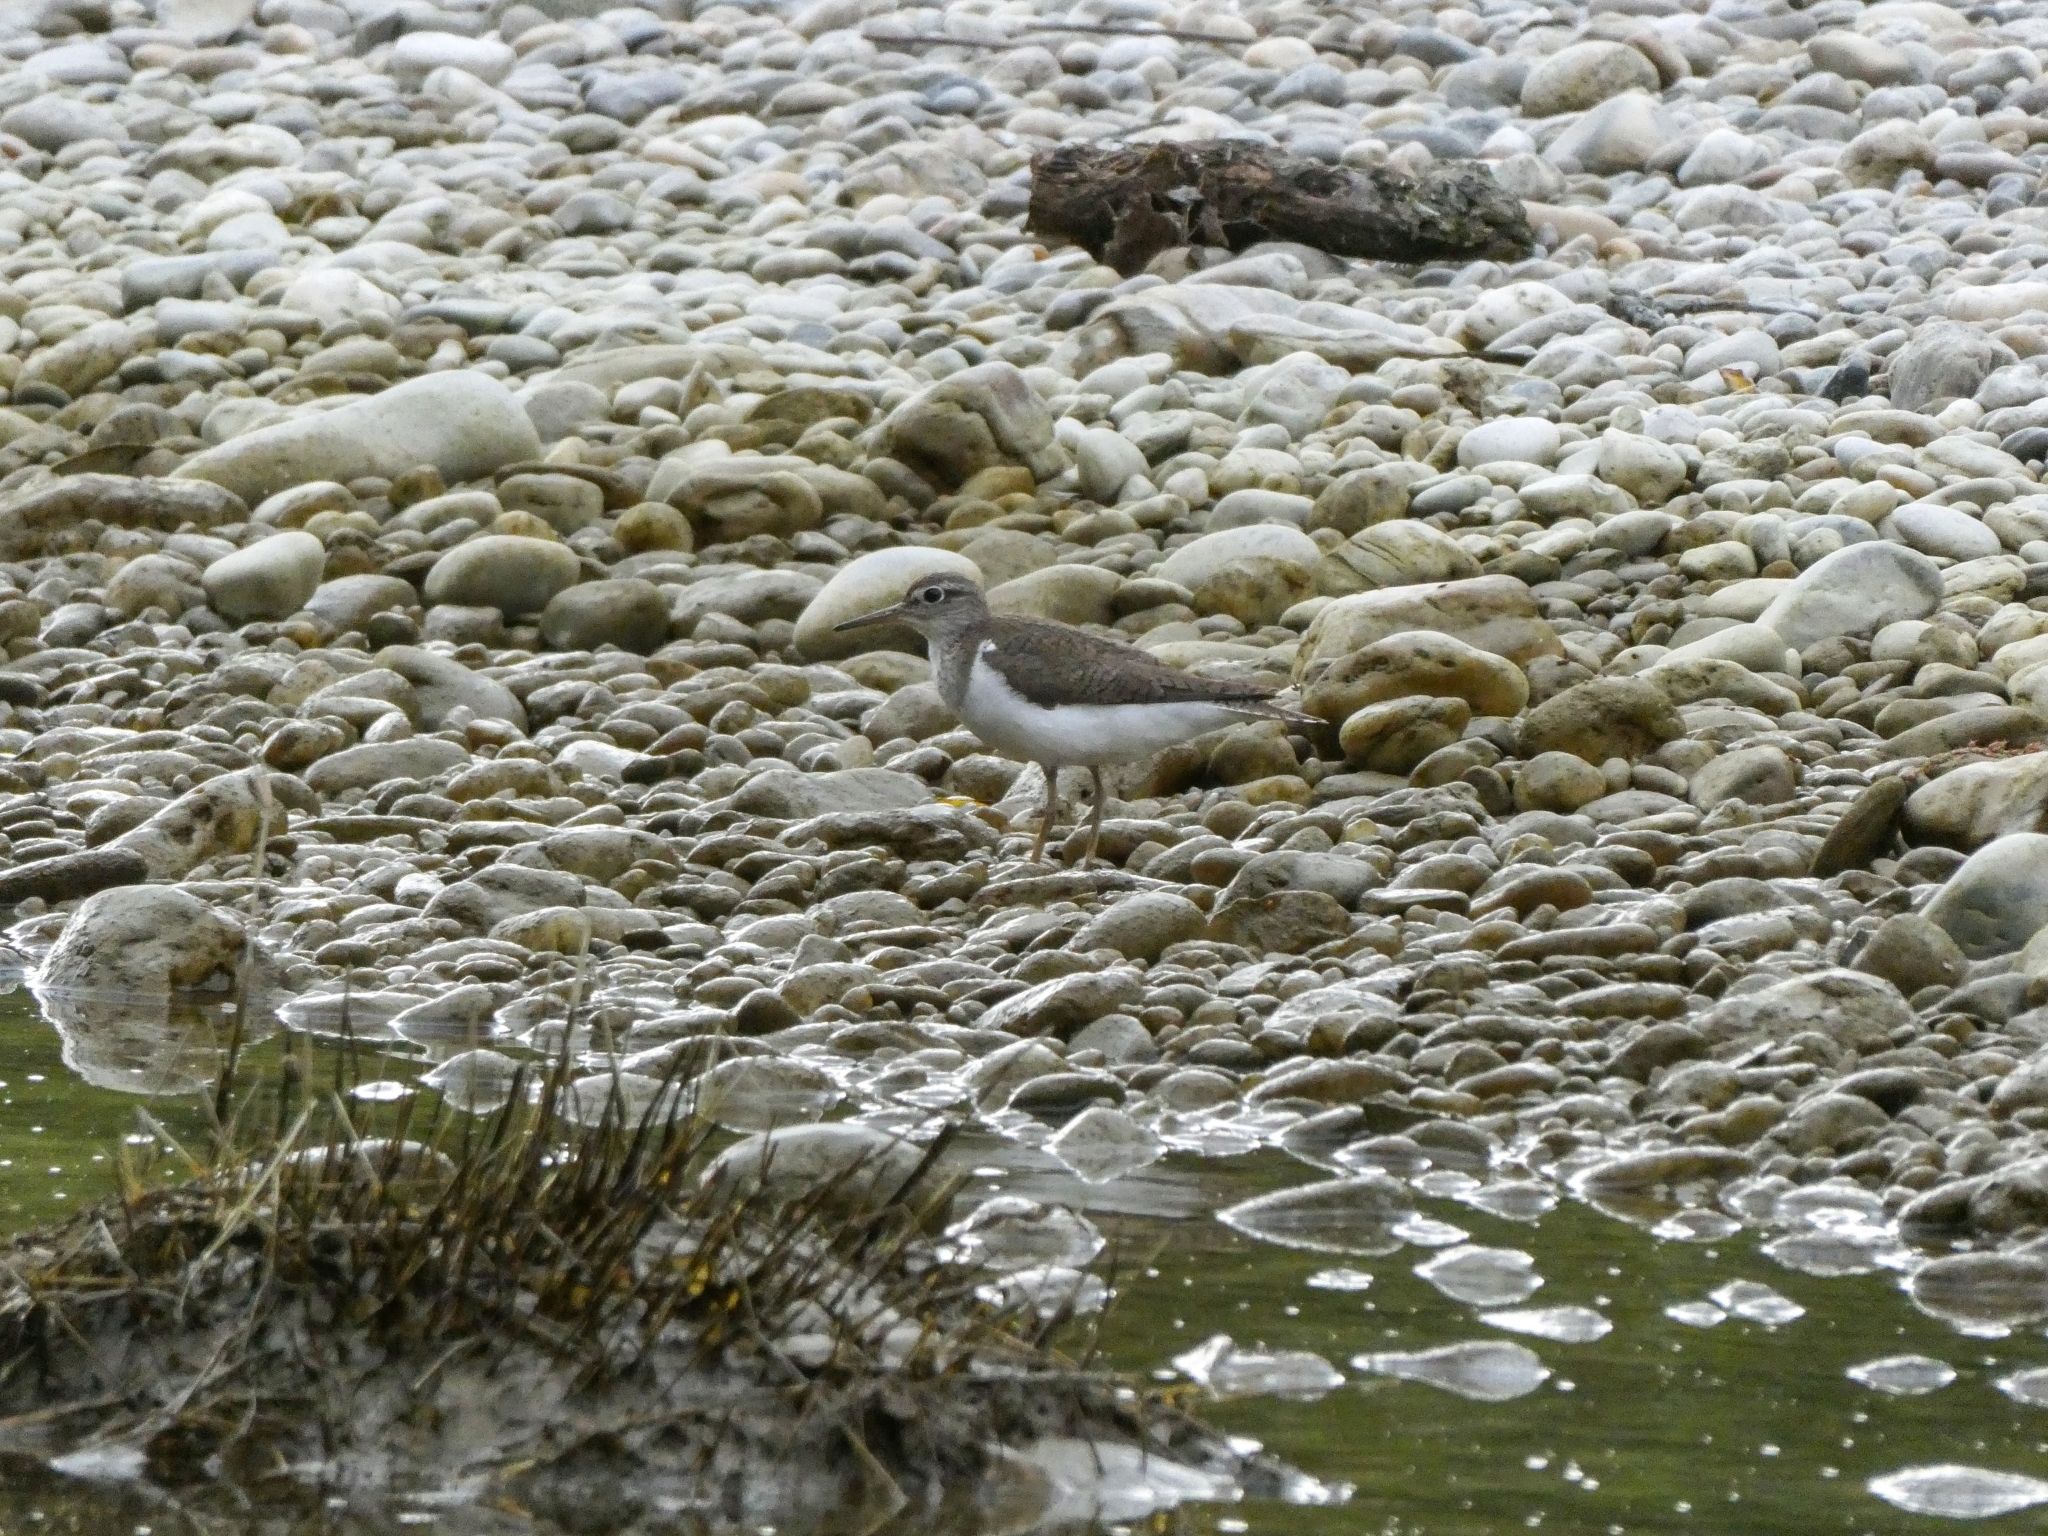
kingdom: Animalia
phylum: Chordata
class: Aves
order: Charadriiformes
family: Scolopacidae
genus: Actitis
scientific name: Actitis hypoleucos
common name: Common sandpiper
